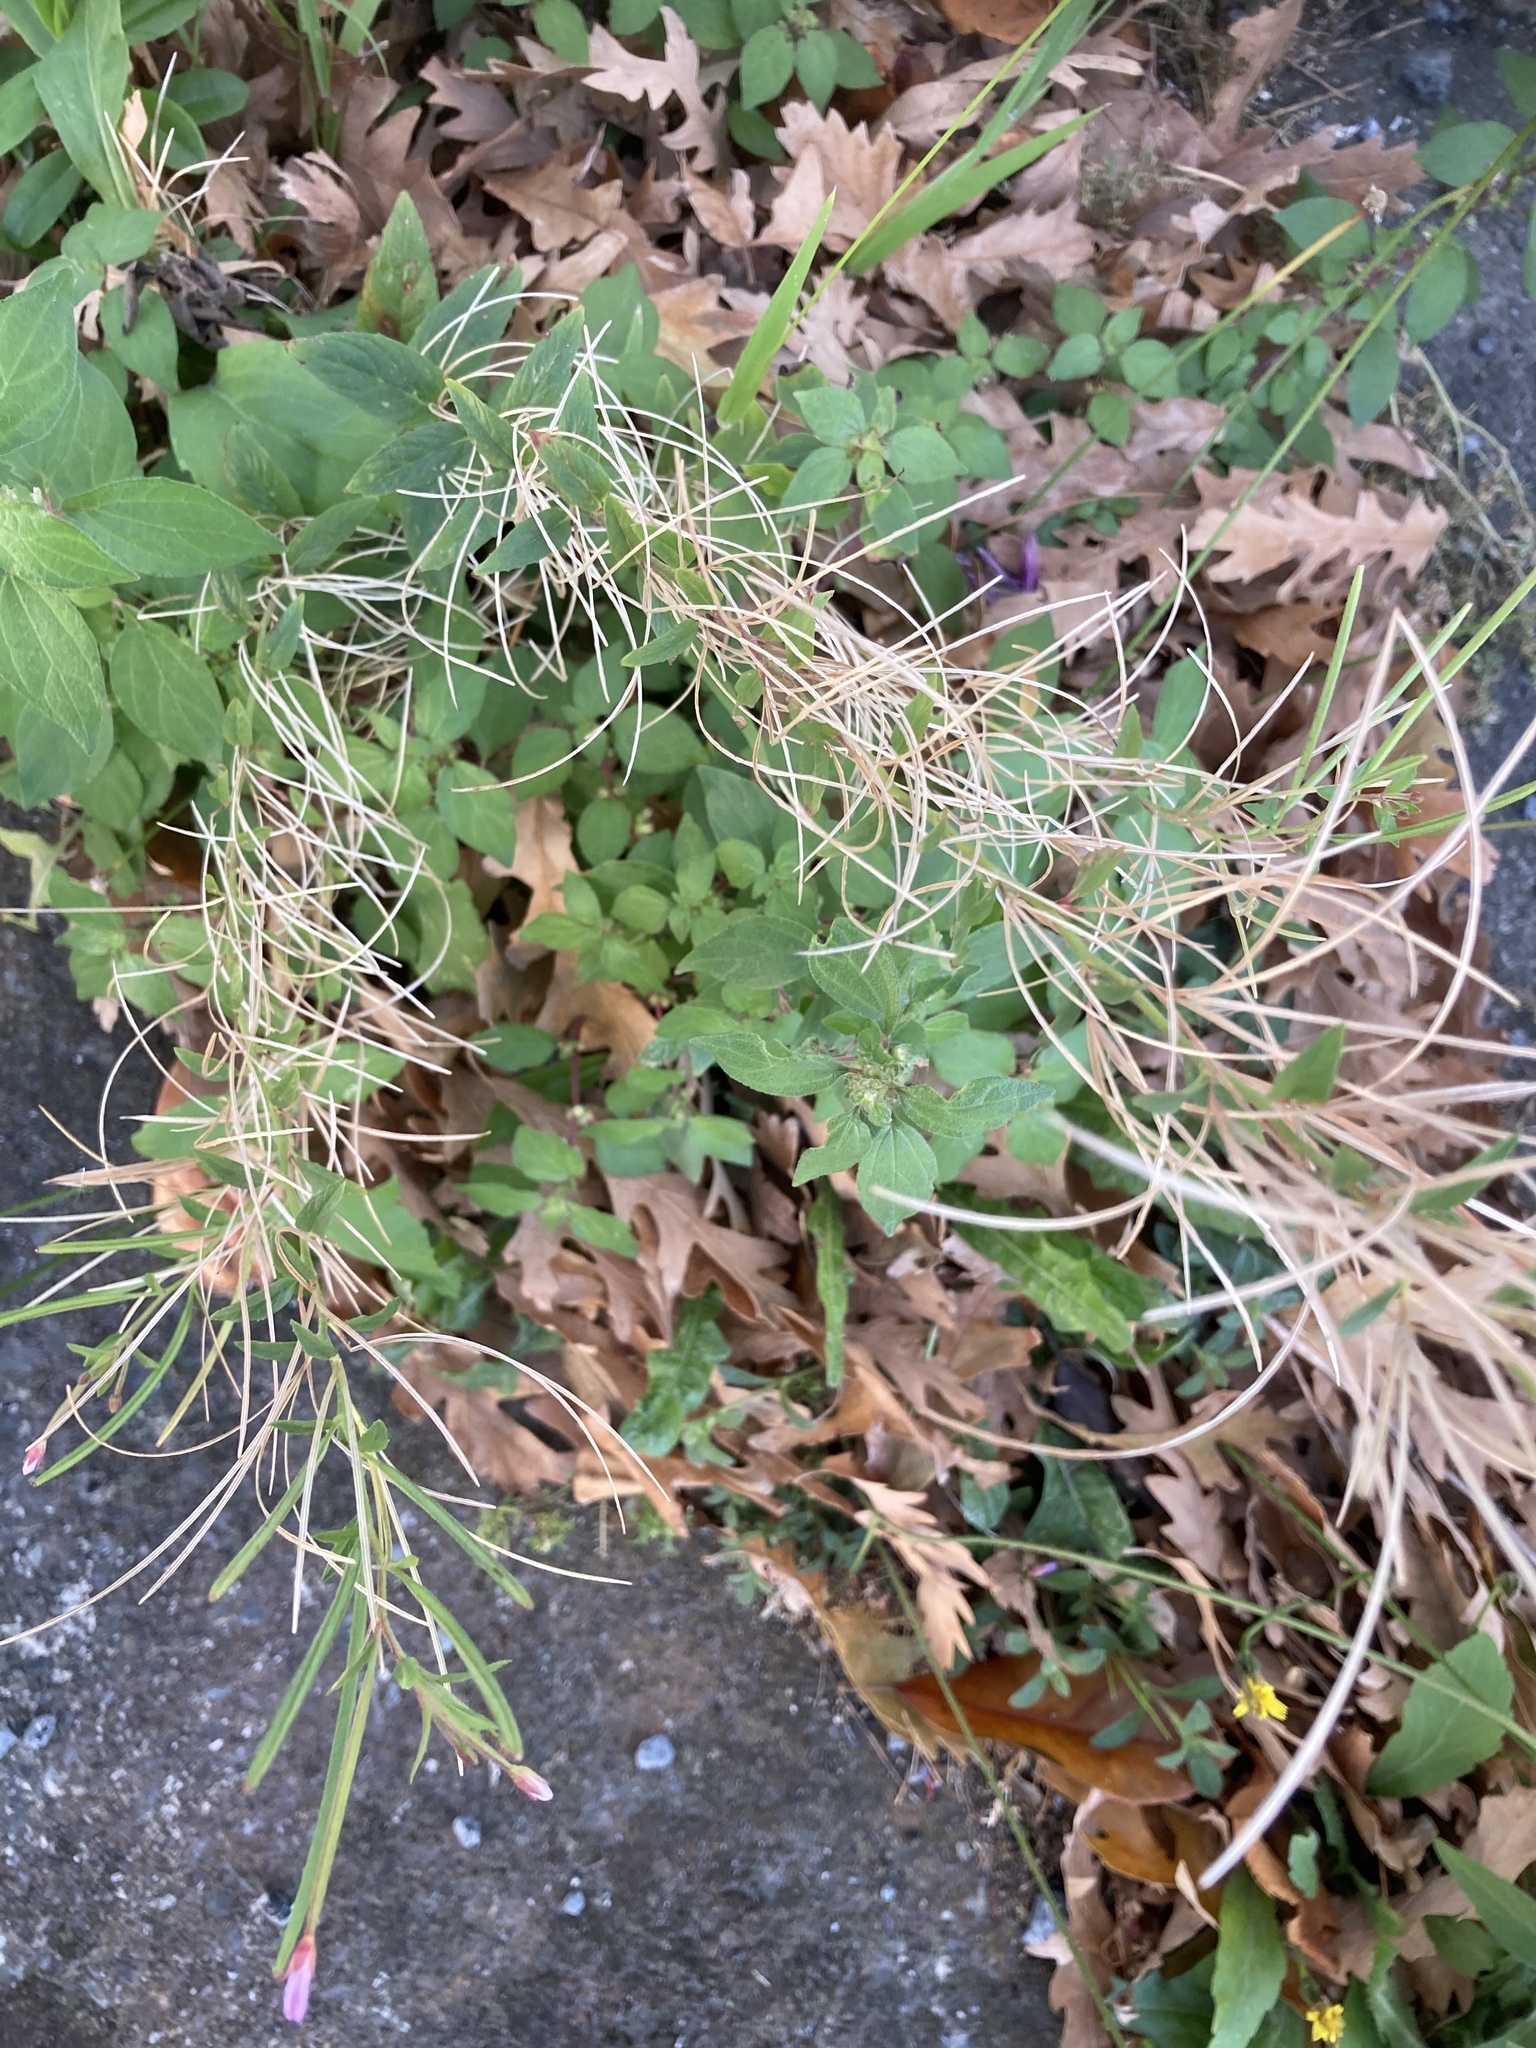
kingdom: Plantae
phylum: Tracheophyta
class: Magnoliopsida
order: Myrtales
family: Onagraceae
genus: Epilobium
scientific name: Epilobium ciliatum
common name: American willowherb
